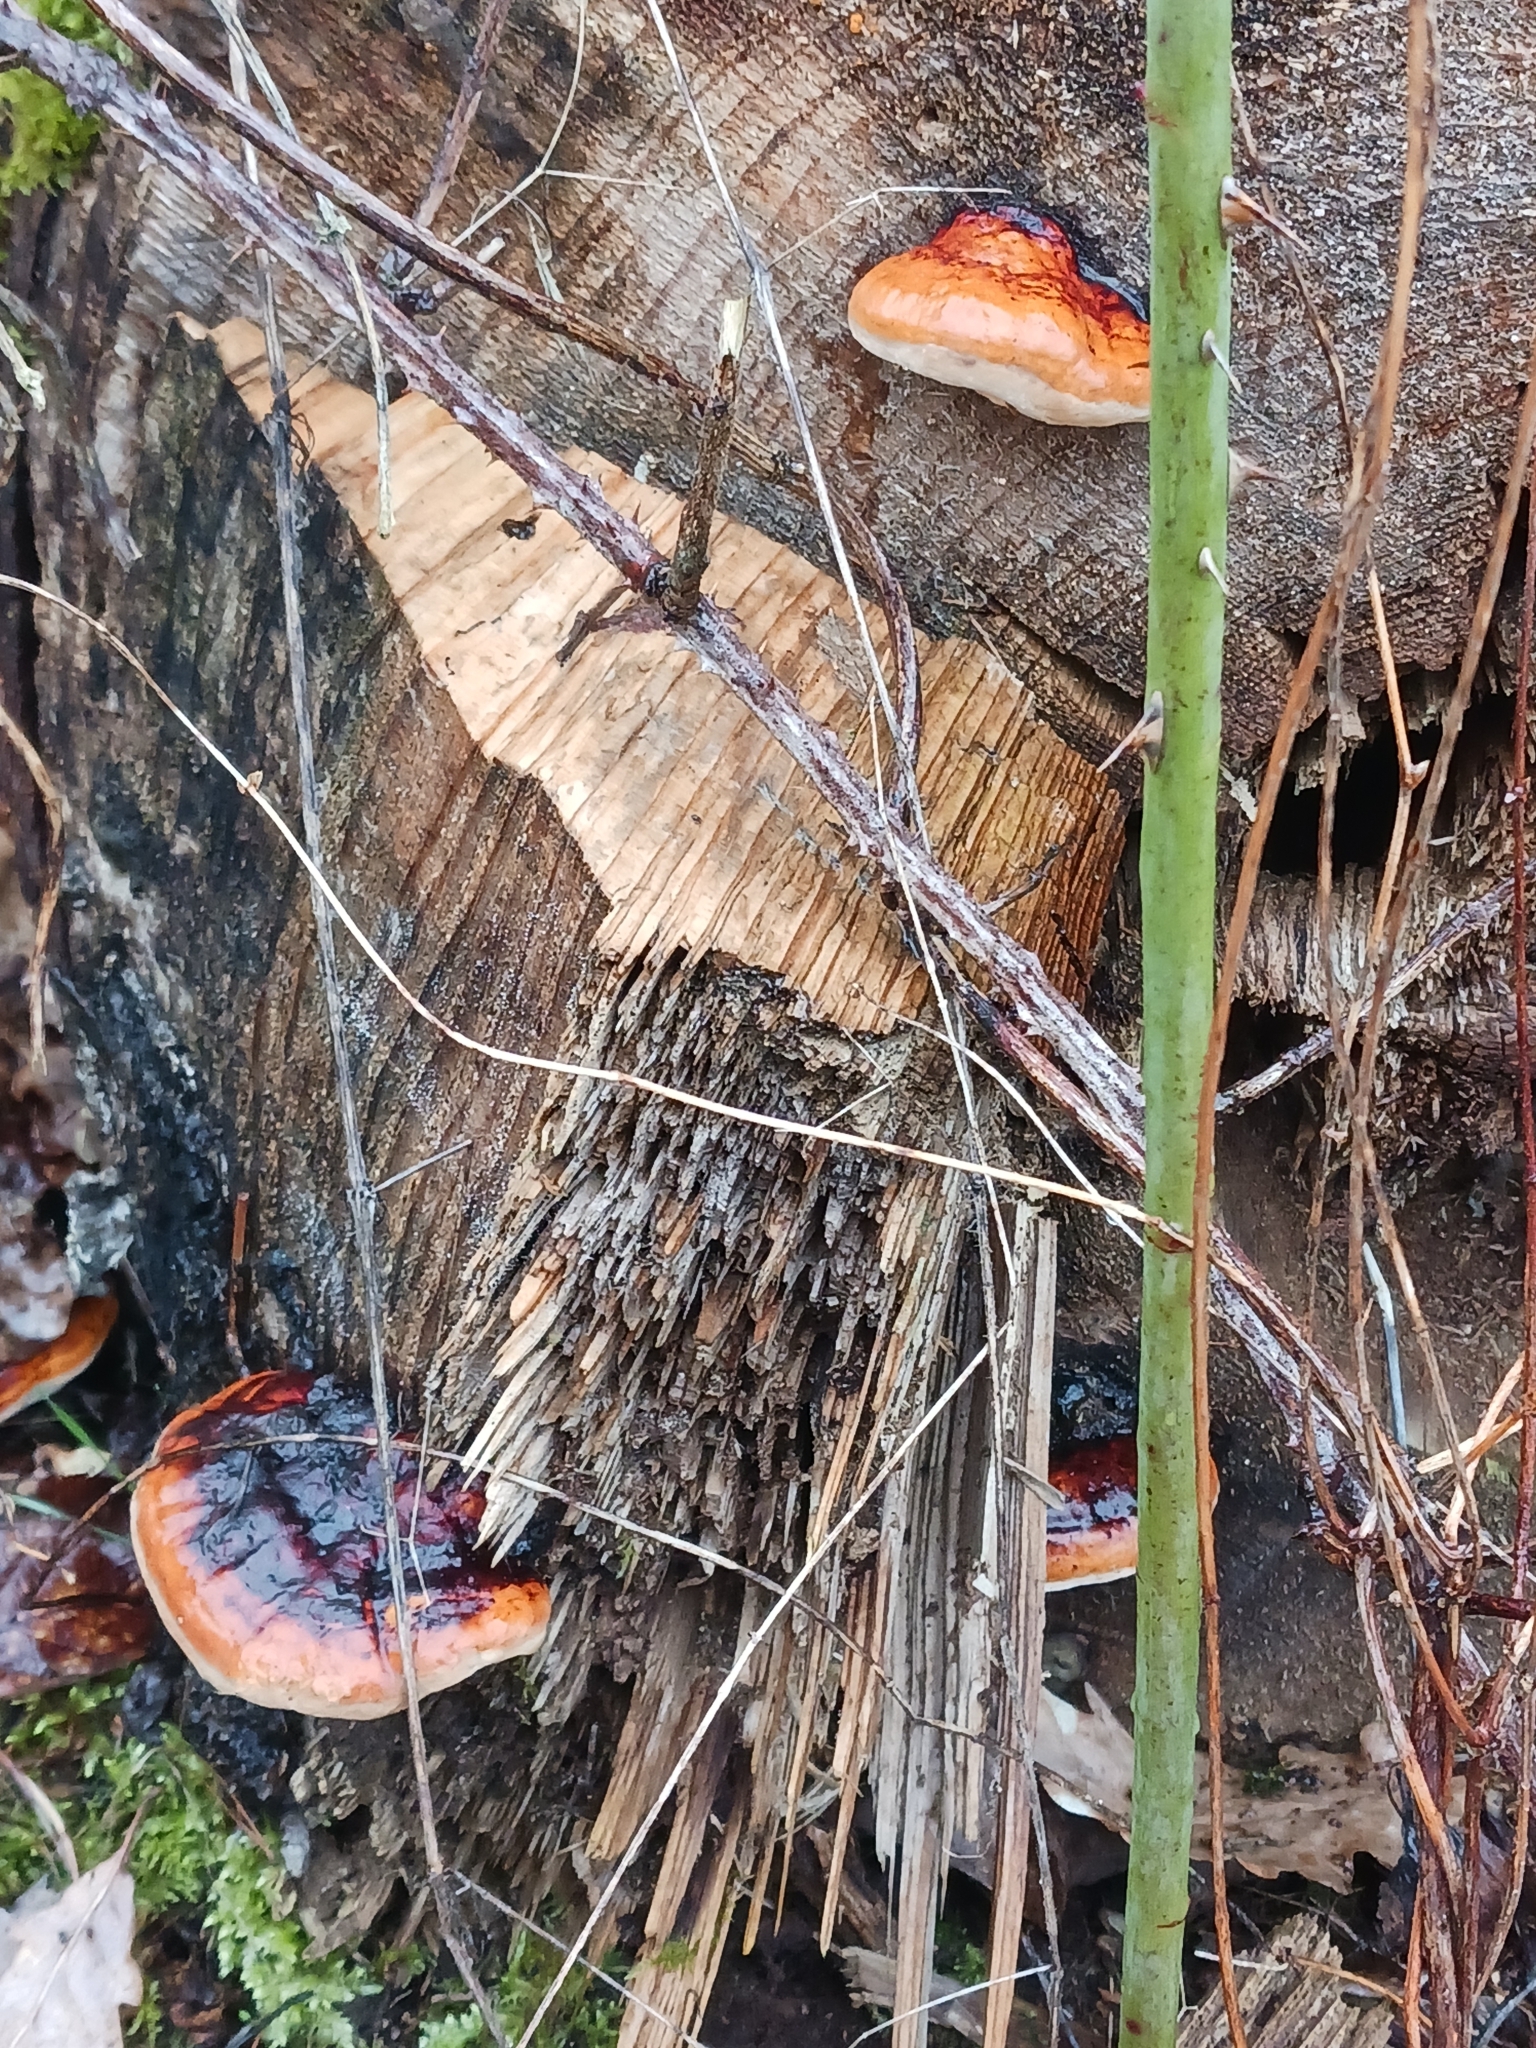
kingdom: Fungi
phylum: Basidiomycota
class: Agaricomycetes
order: Polyporales
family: Fomitopsidaceae
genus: Fomitopsis
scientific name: Fomitopsis pinicola
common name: Red-belted bracket
